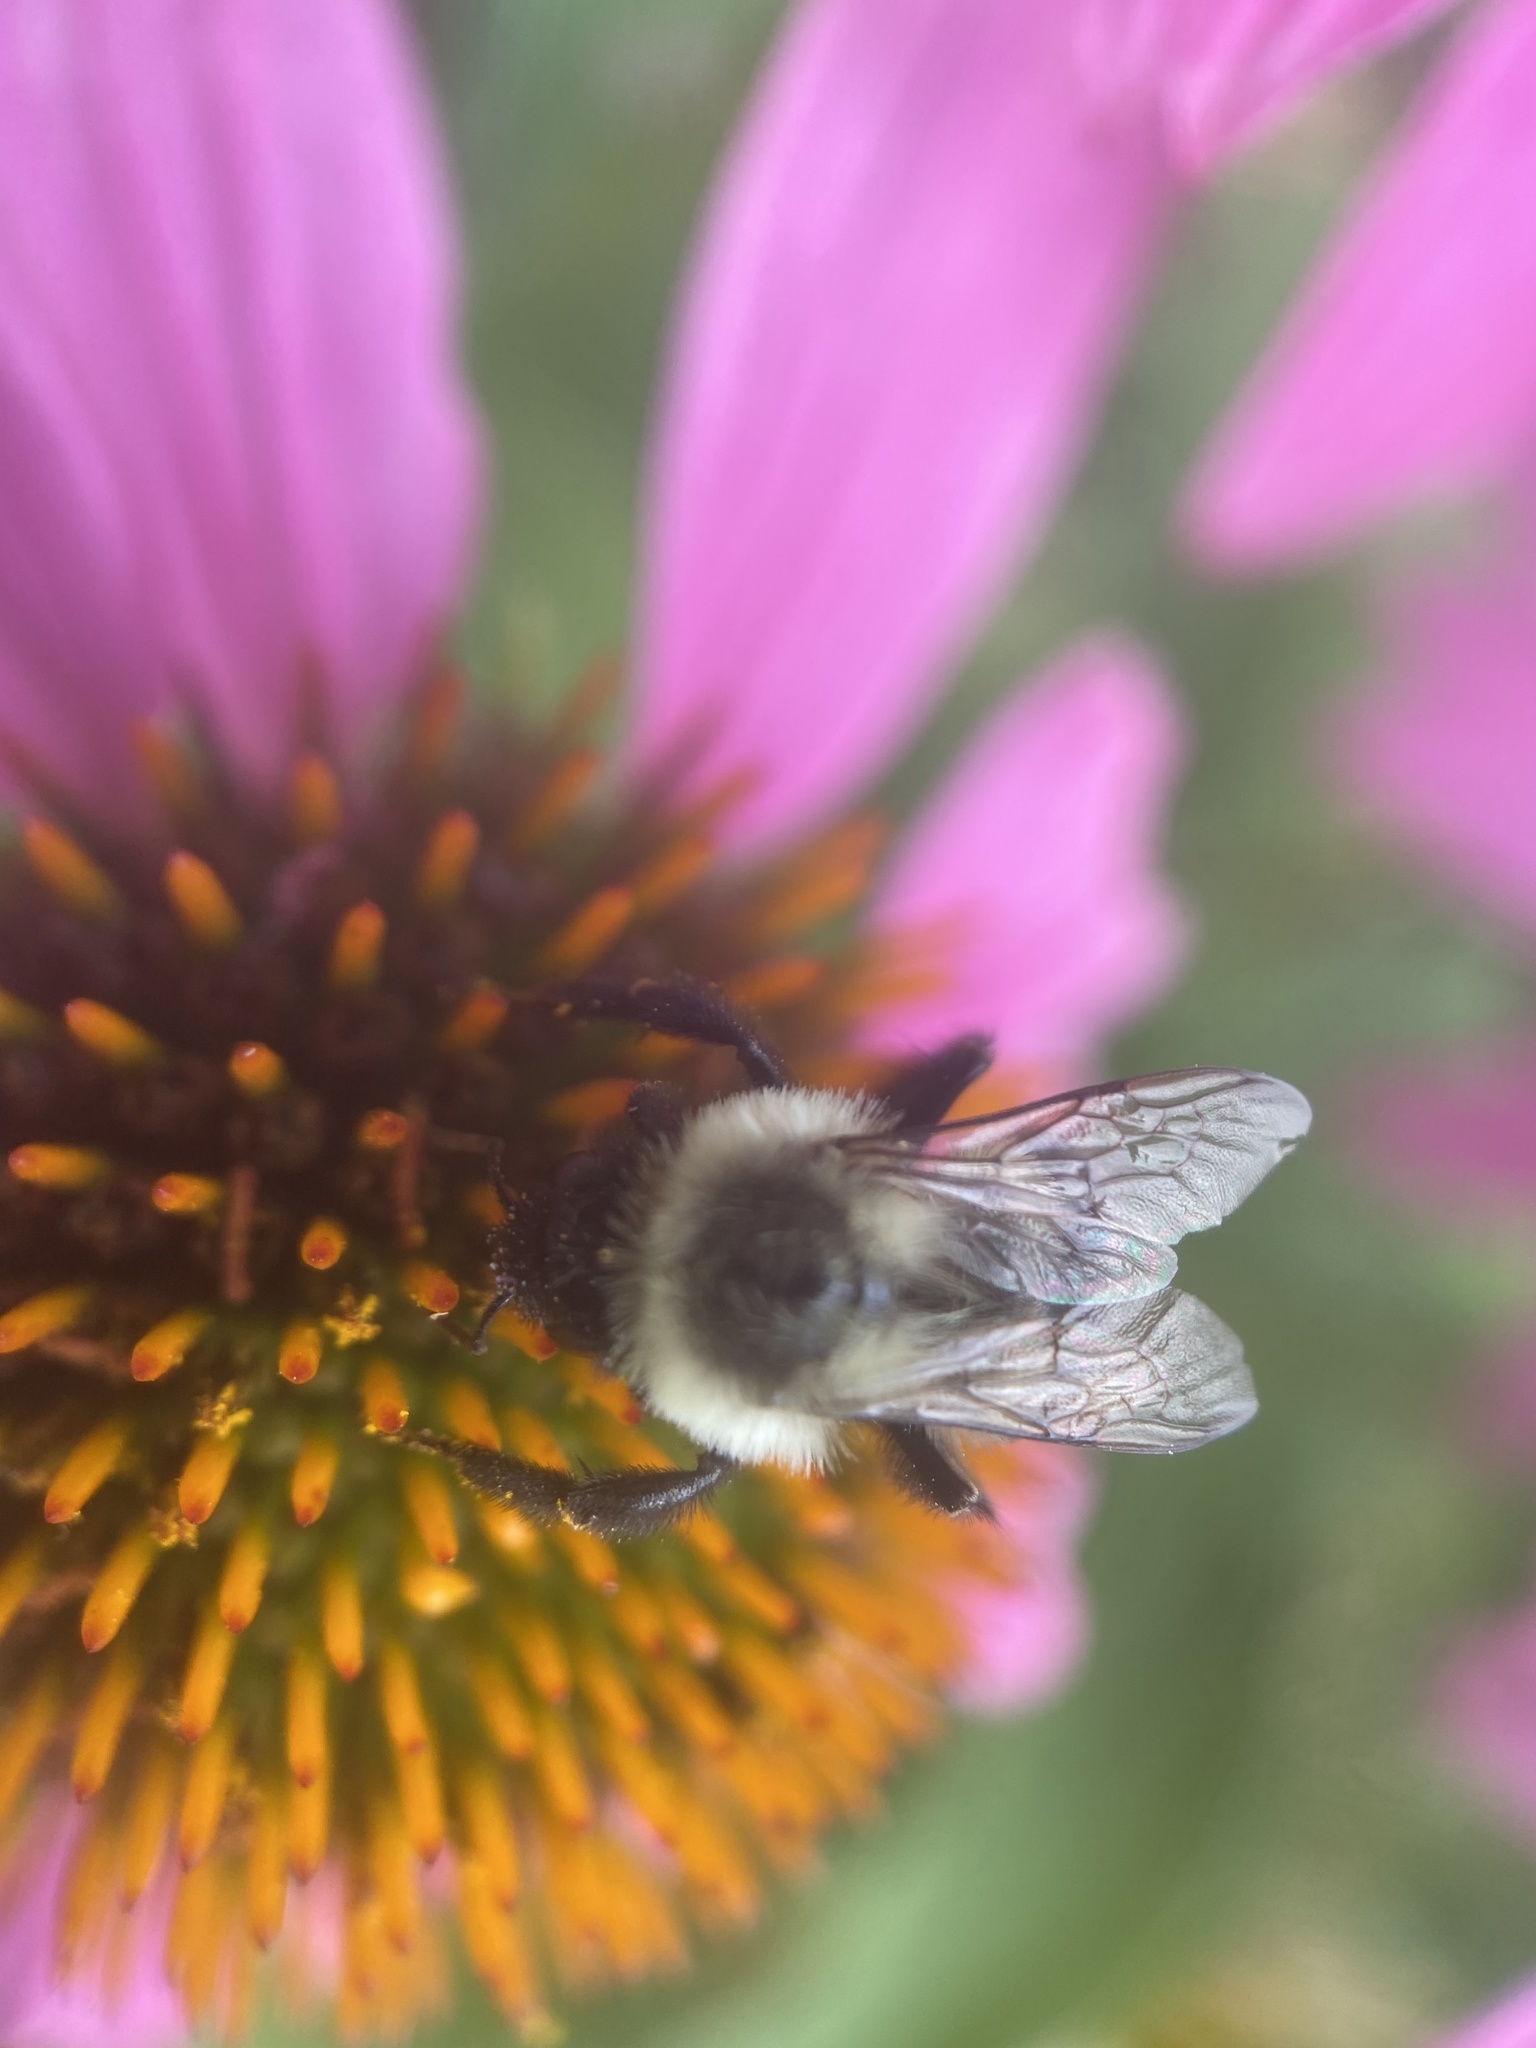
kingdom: Animalia
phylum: Arthropoda
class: Insecta
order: Hymenoptera
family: Apidae
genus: Bombus
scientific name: Bombus impatiens
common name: Common eastern bumble bee
